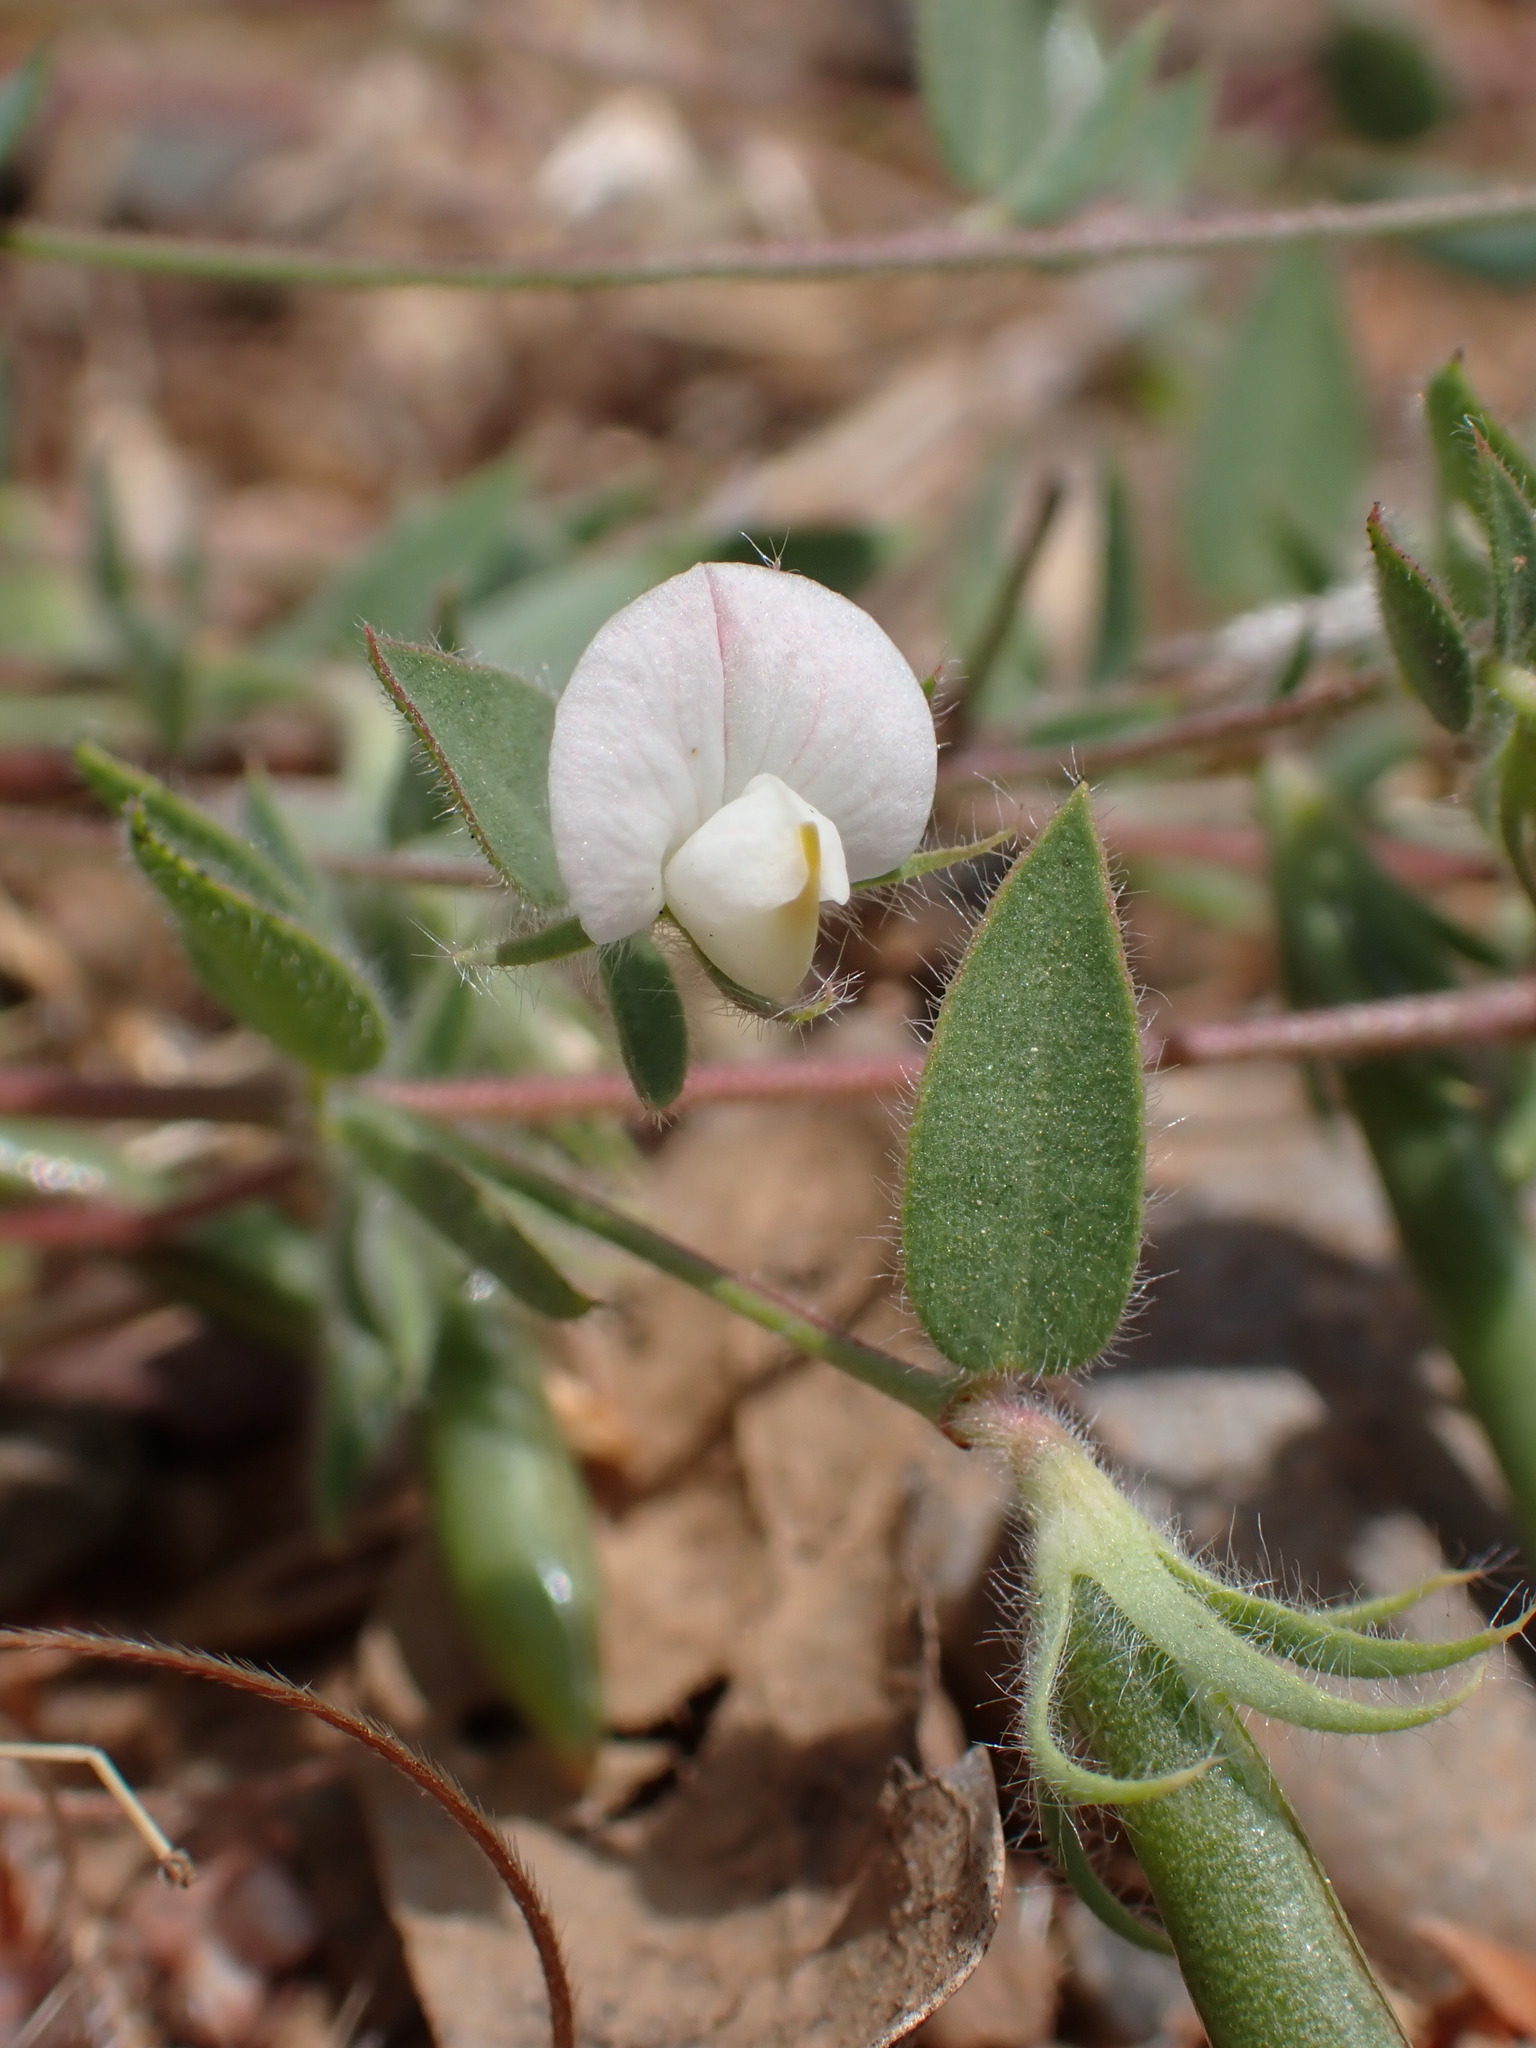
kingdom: Plantae
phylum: Tracheophyta
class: Magnoliopsida
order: Fabales
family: Fabaceae
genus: Acmispon
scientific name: Acmispon americanus
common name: American bird's-foot trefoil
